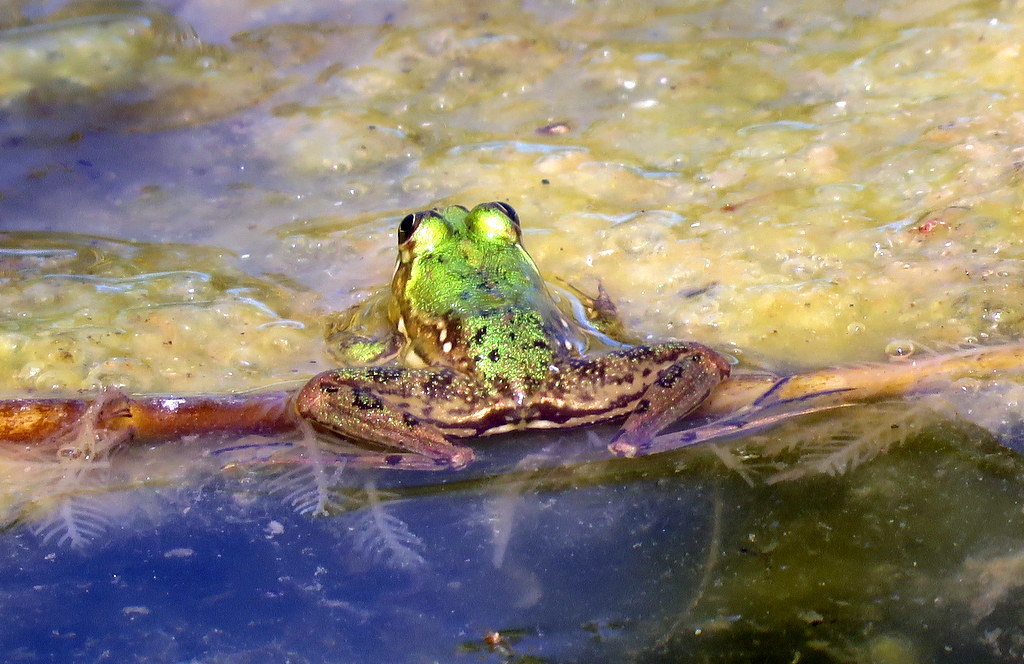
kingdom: Animalia
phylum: Chordata
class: Amphibia
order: Anura
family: Hylidae
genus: Pseudis
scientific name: Pseudis minuta
